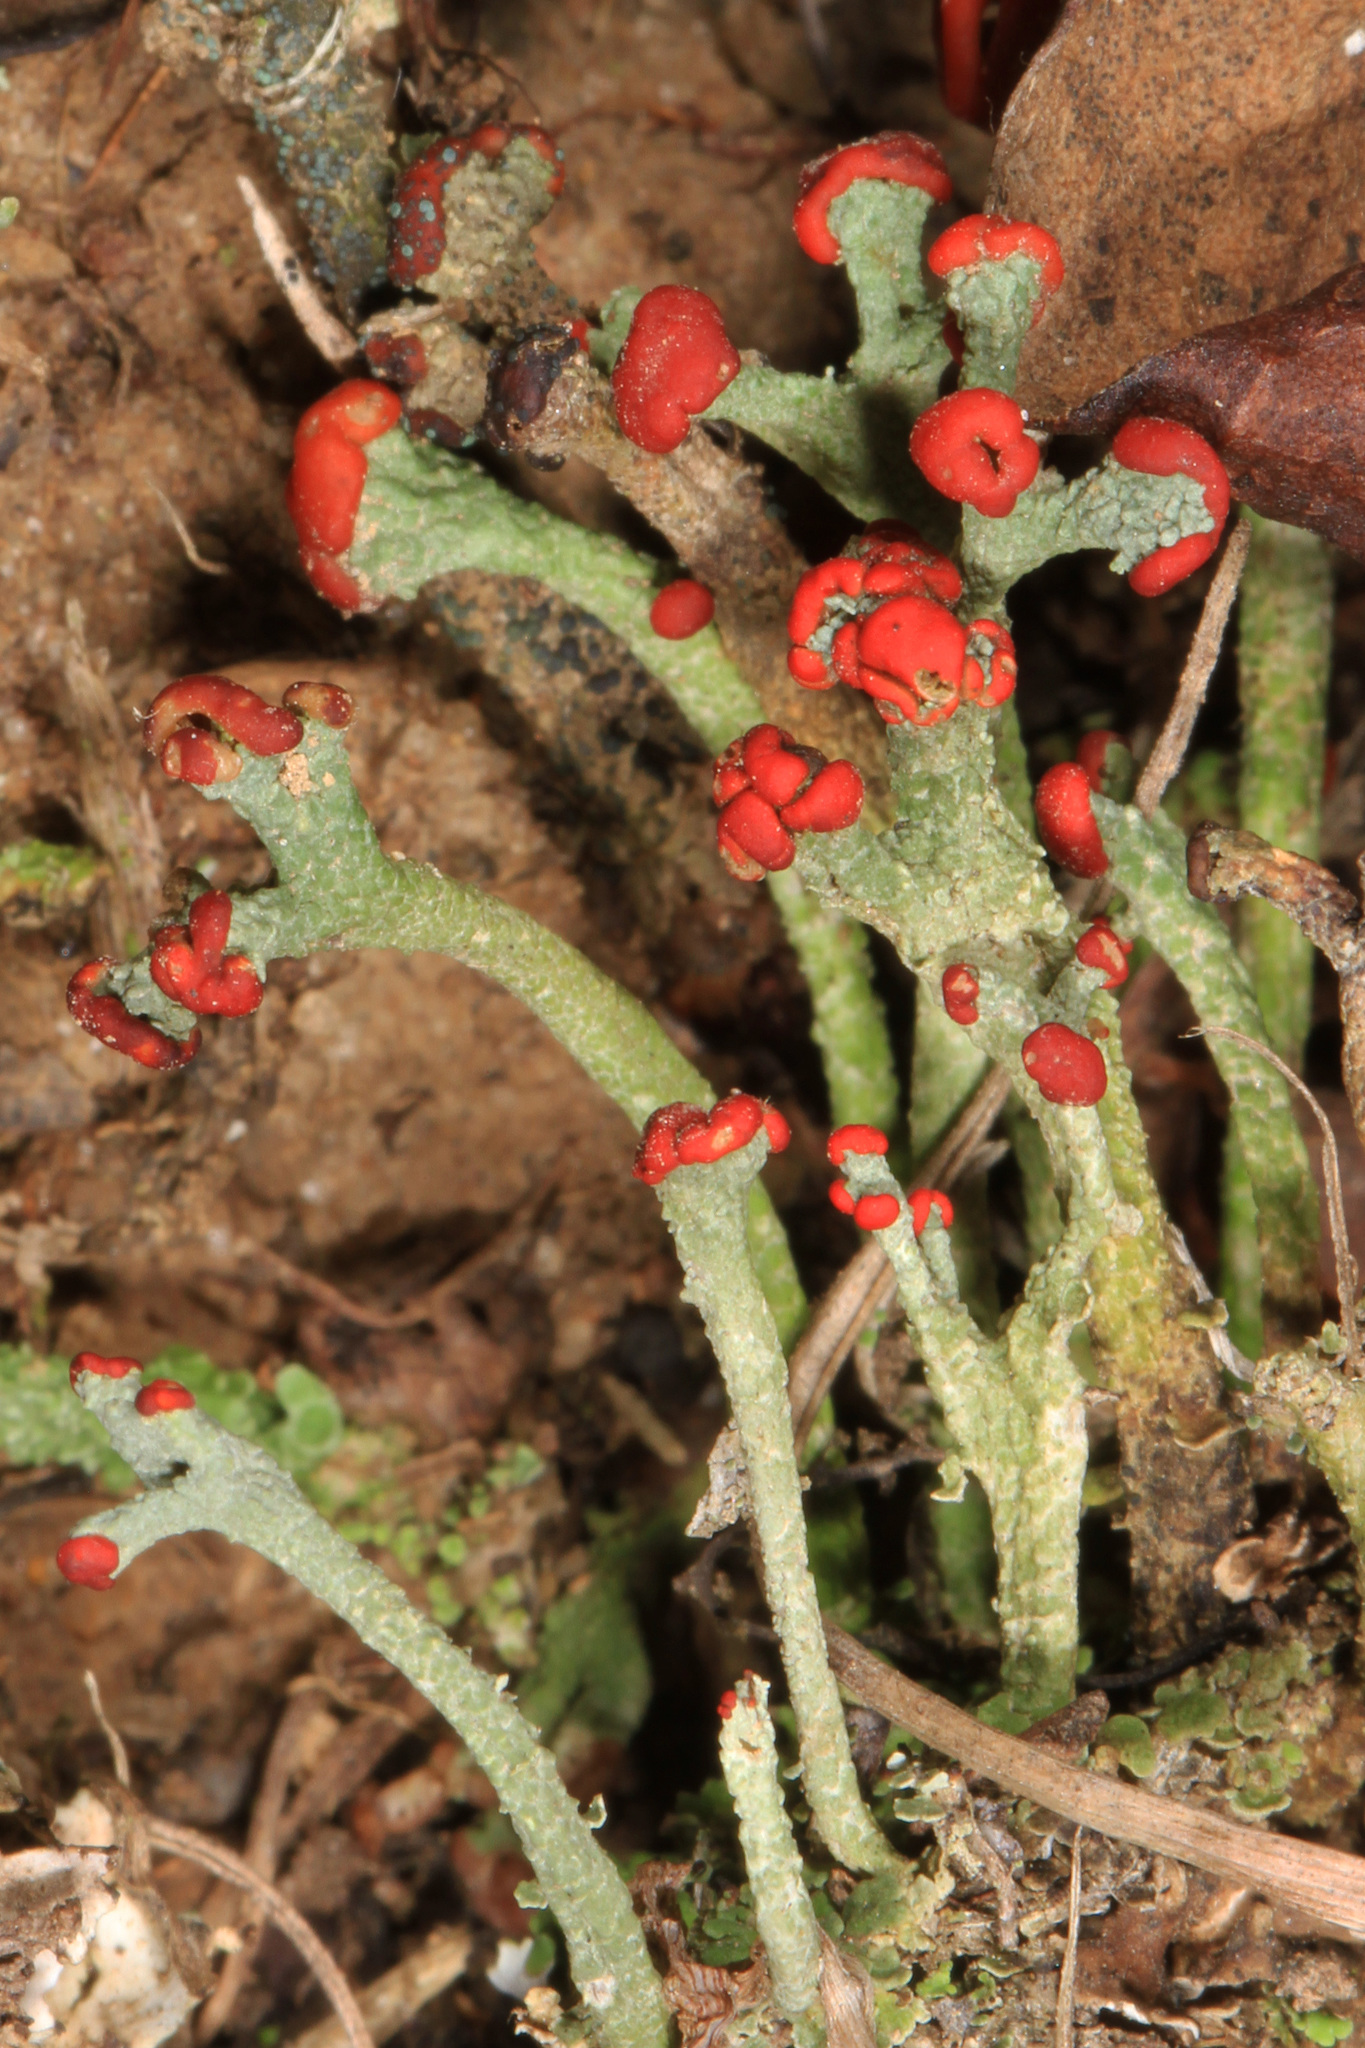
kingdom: Fungi
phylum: Ascomycota
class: Lecanoromycetes
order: Lecanorales
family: Cladoniaceae
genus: Cladonia
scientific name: Cladonia cristatella
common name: British soldier lichen
